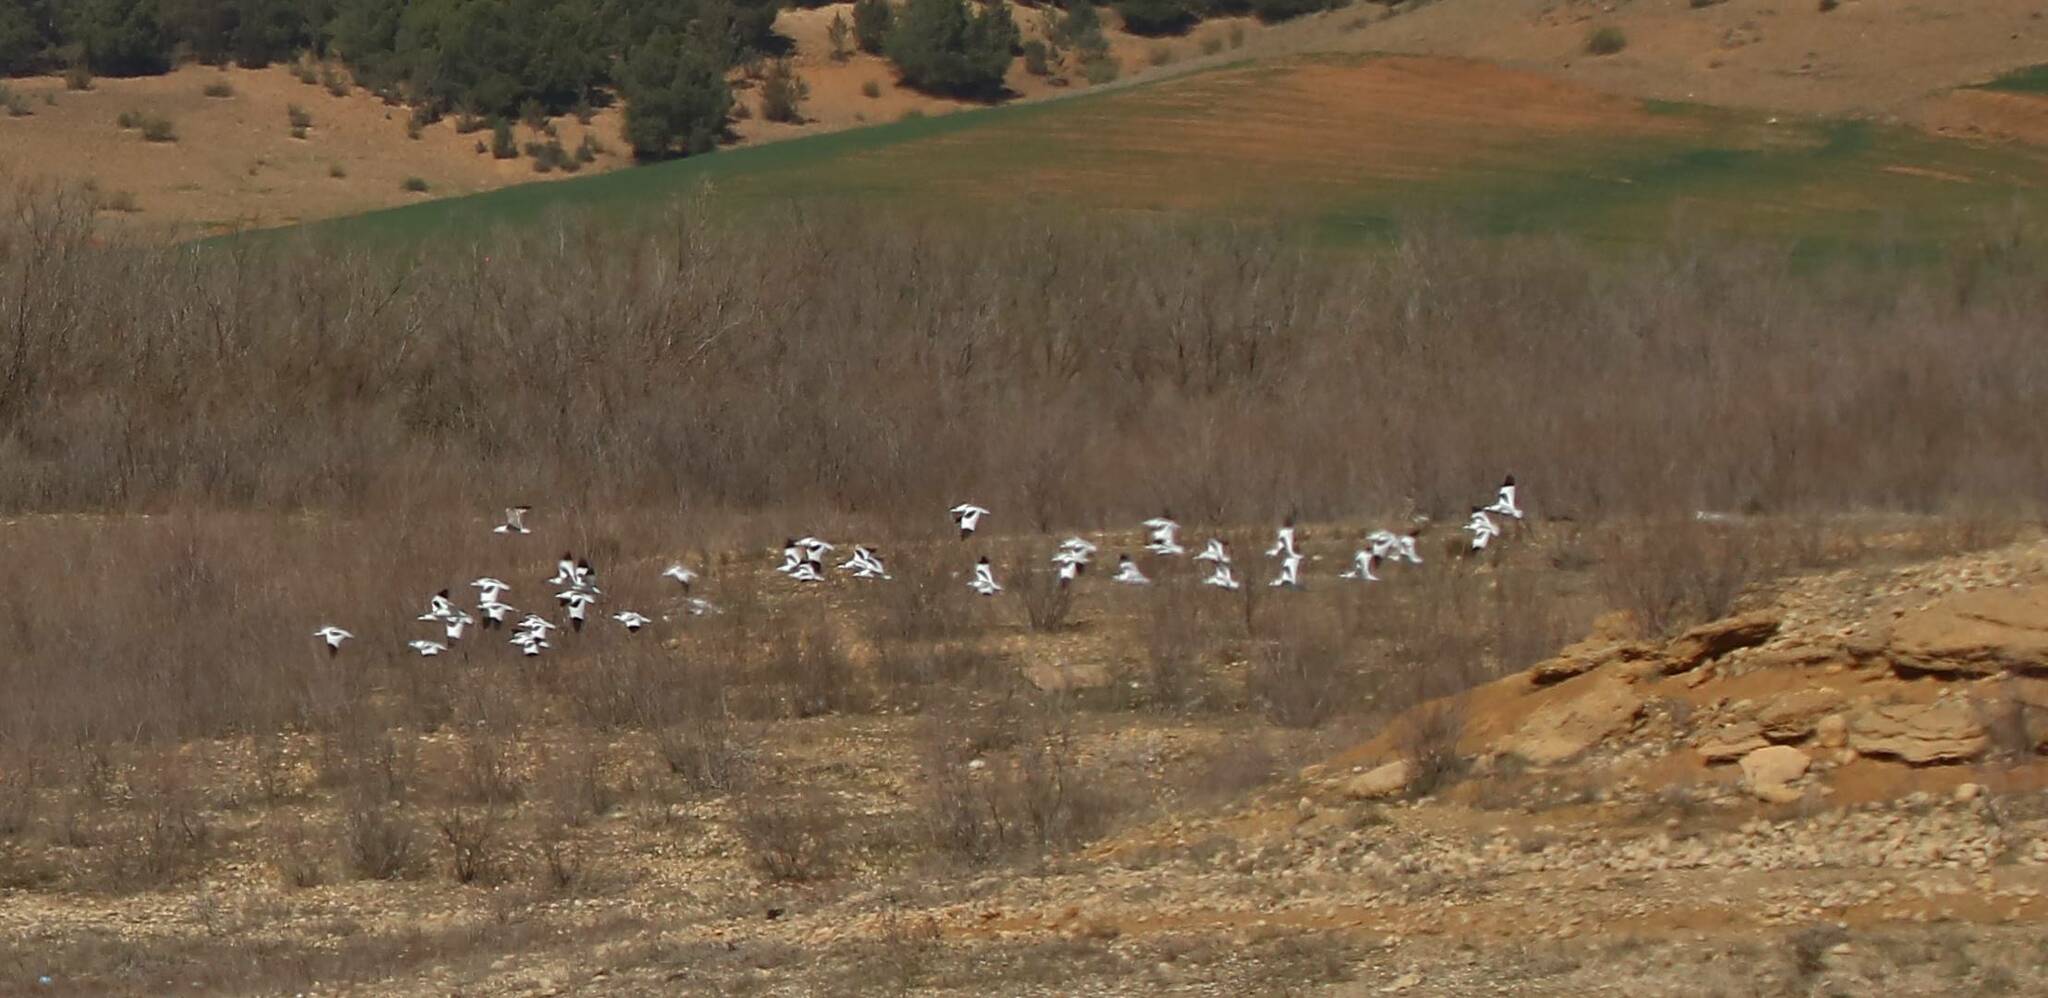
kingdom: Animalia
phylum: Chordata
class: Aves
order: Charadriiformes
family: Recurvirostridae
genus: Recurvirostra
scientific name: Recurvirostra avosetta
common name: Pied avocet
